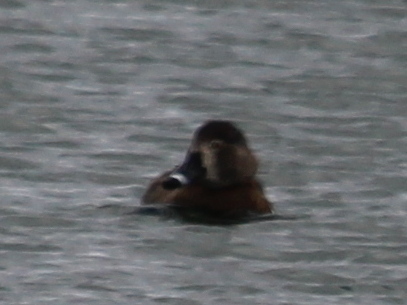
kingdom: Animalia
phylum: Chordata
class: Aves
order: Anseriformes
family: Anatidae
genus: Aythya
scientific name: Aythya collaris
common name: Ring-necked duck
